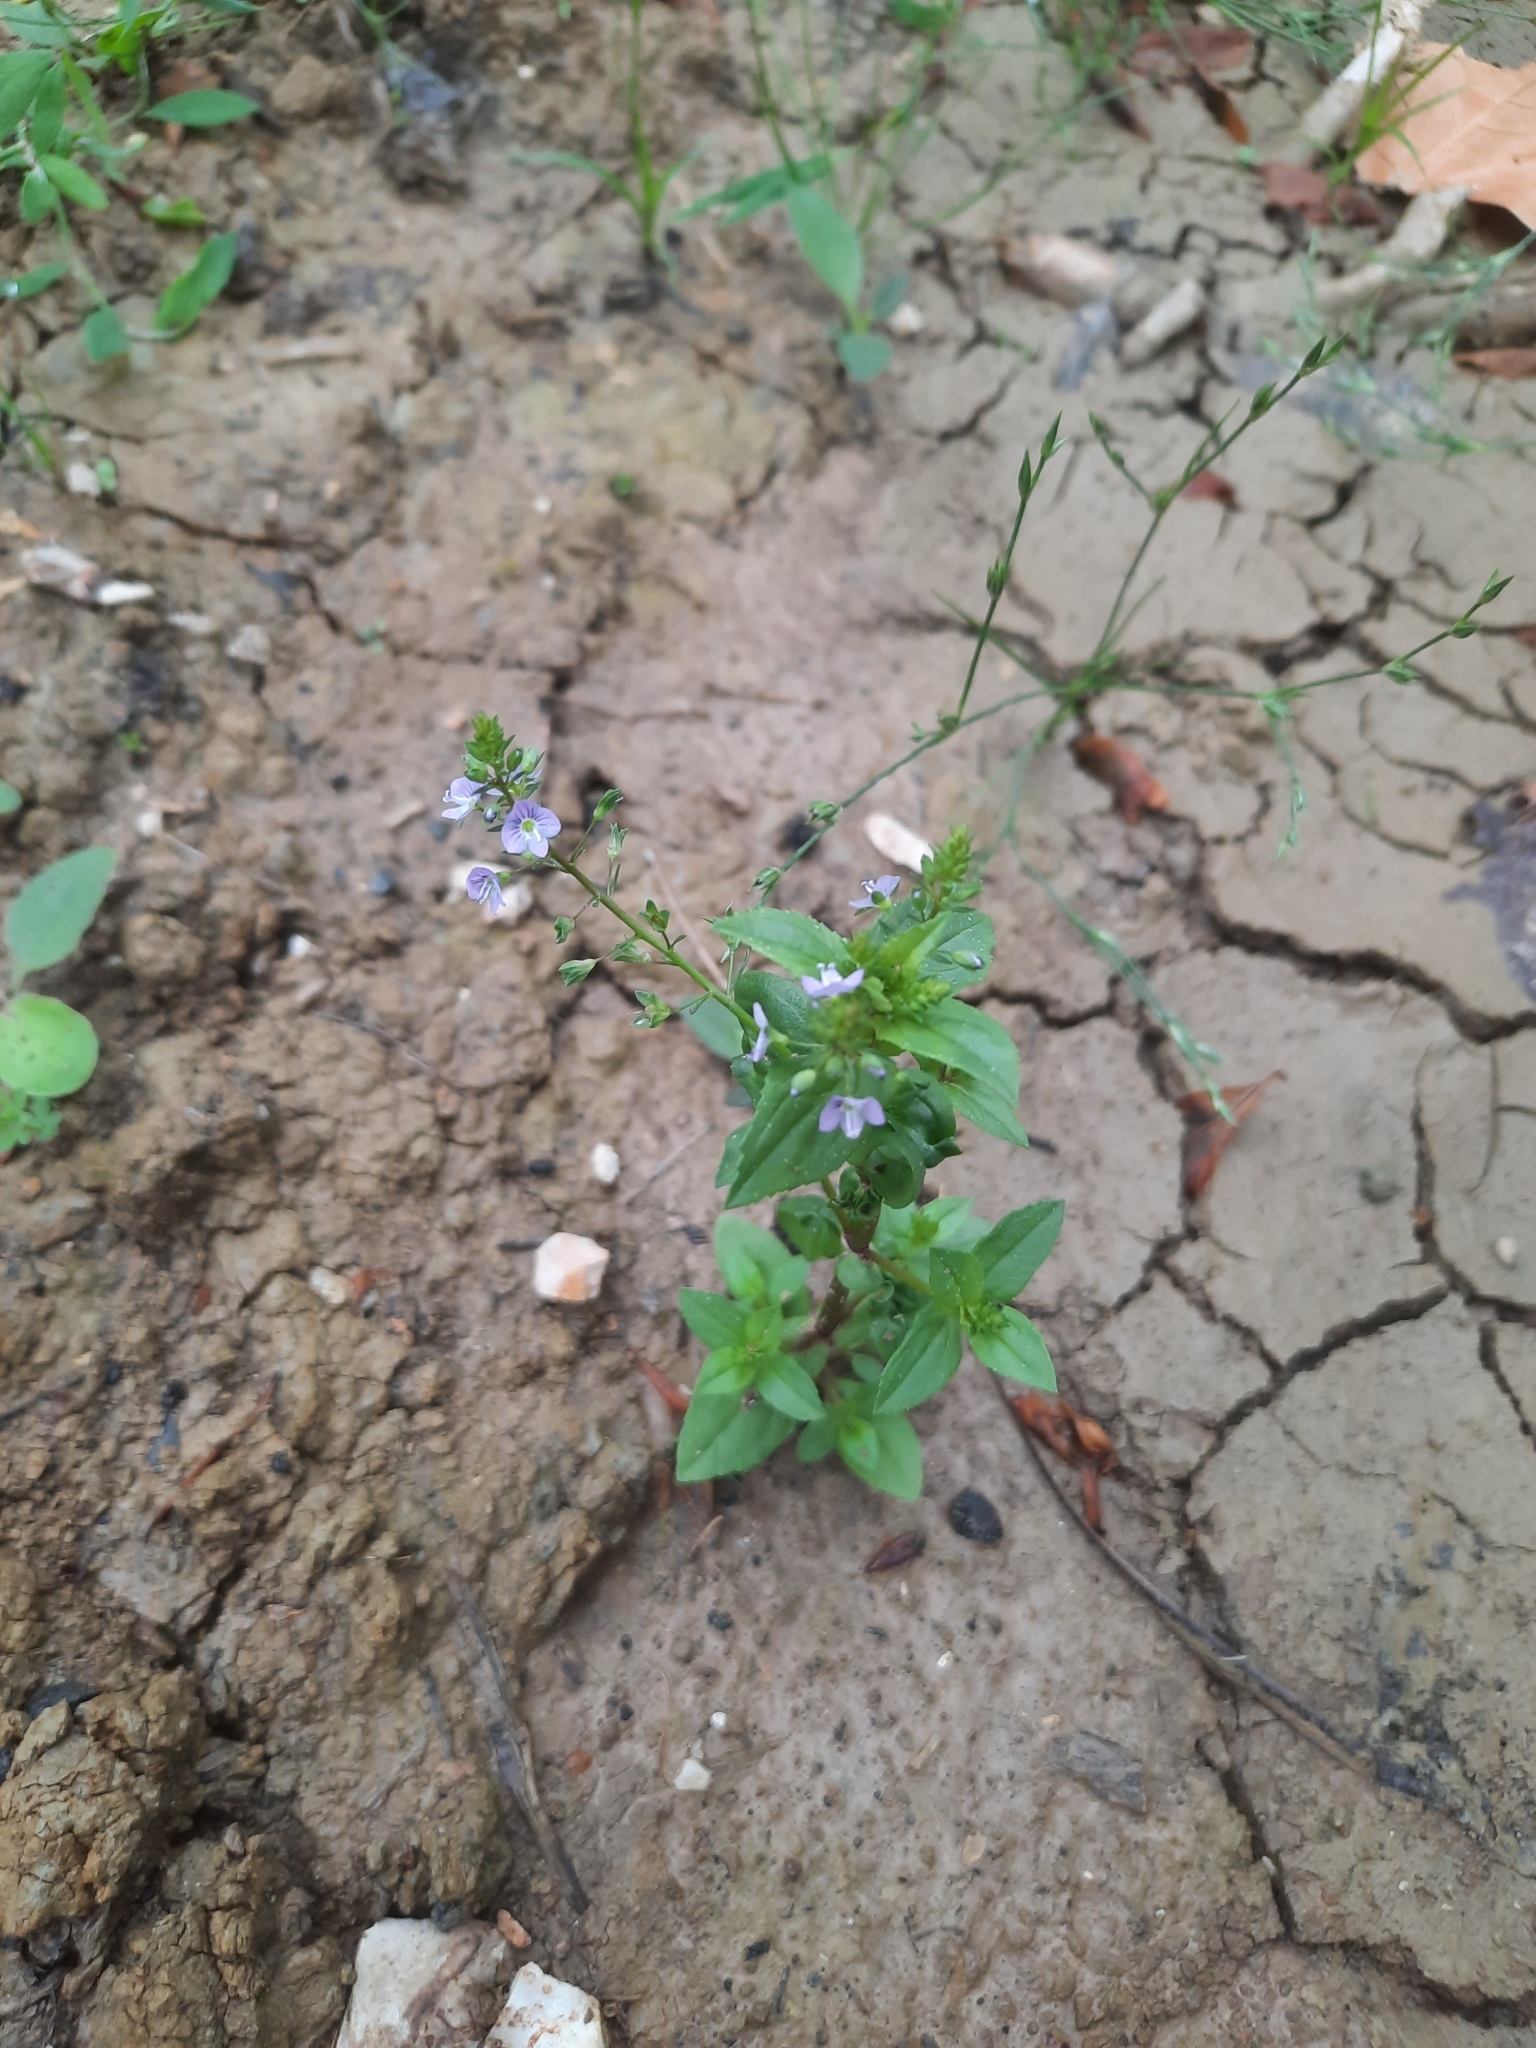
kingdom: Plantae
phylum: Tracheophyta
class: Magnoliopsida
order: Lamiales
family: Plantaginaceae
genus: Veronica
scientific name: Veronica anagallis-aquatica
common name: Water speedwell
